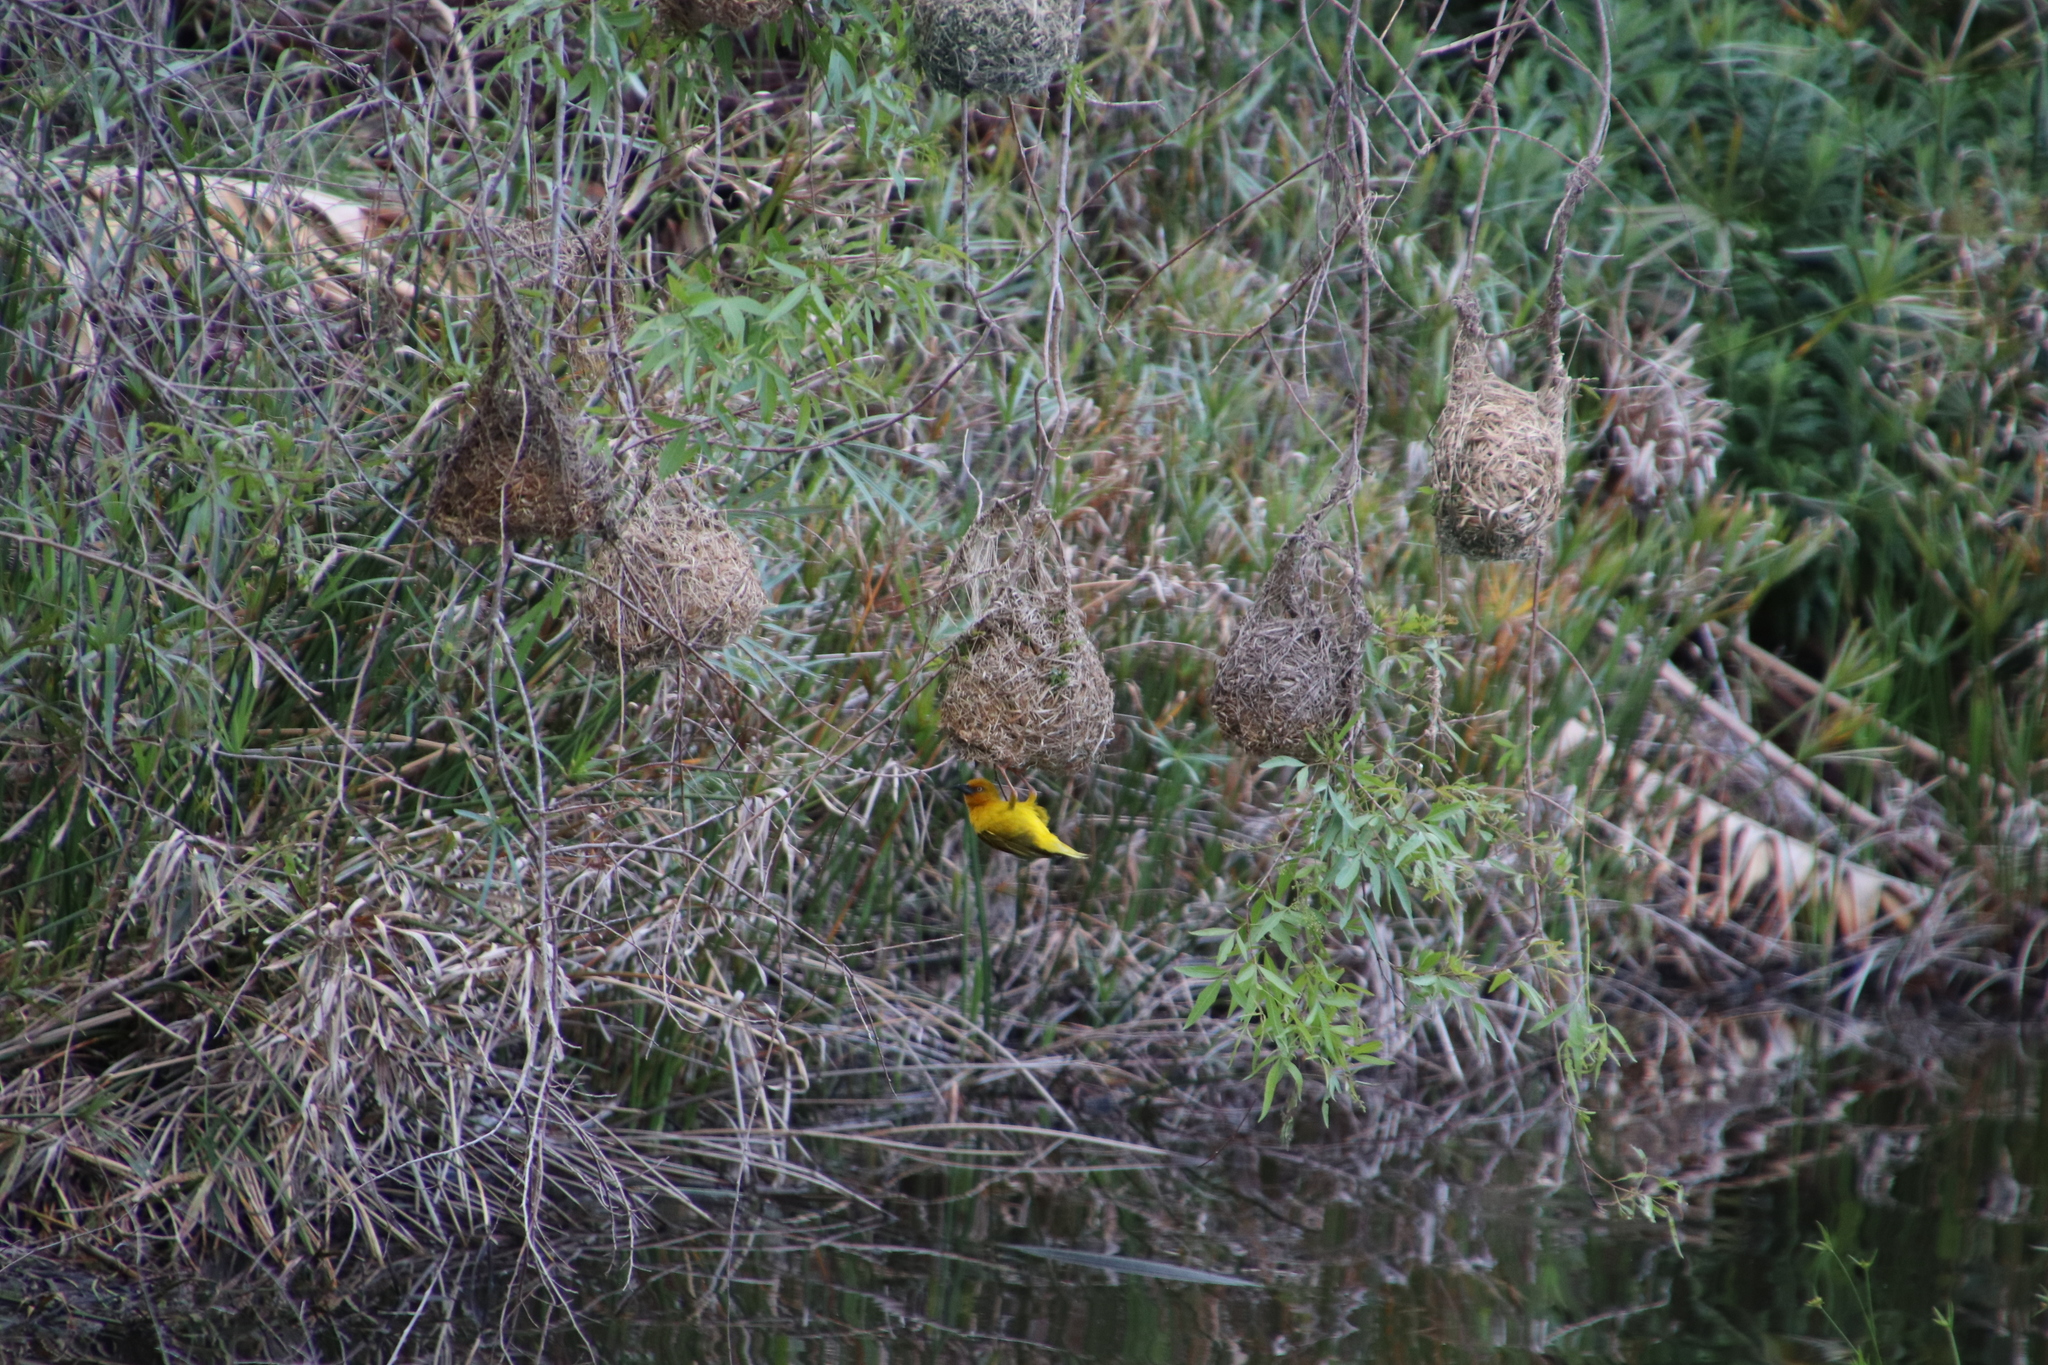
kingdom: Animalia
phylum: Chordata
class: Aves
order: Passeriformes
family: Ploceidae
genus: Ploceus
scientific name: Ploceus capensis
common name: Cape weaver
